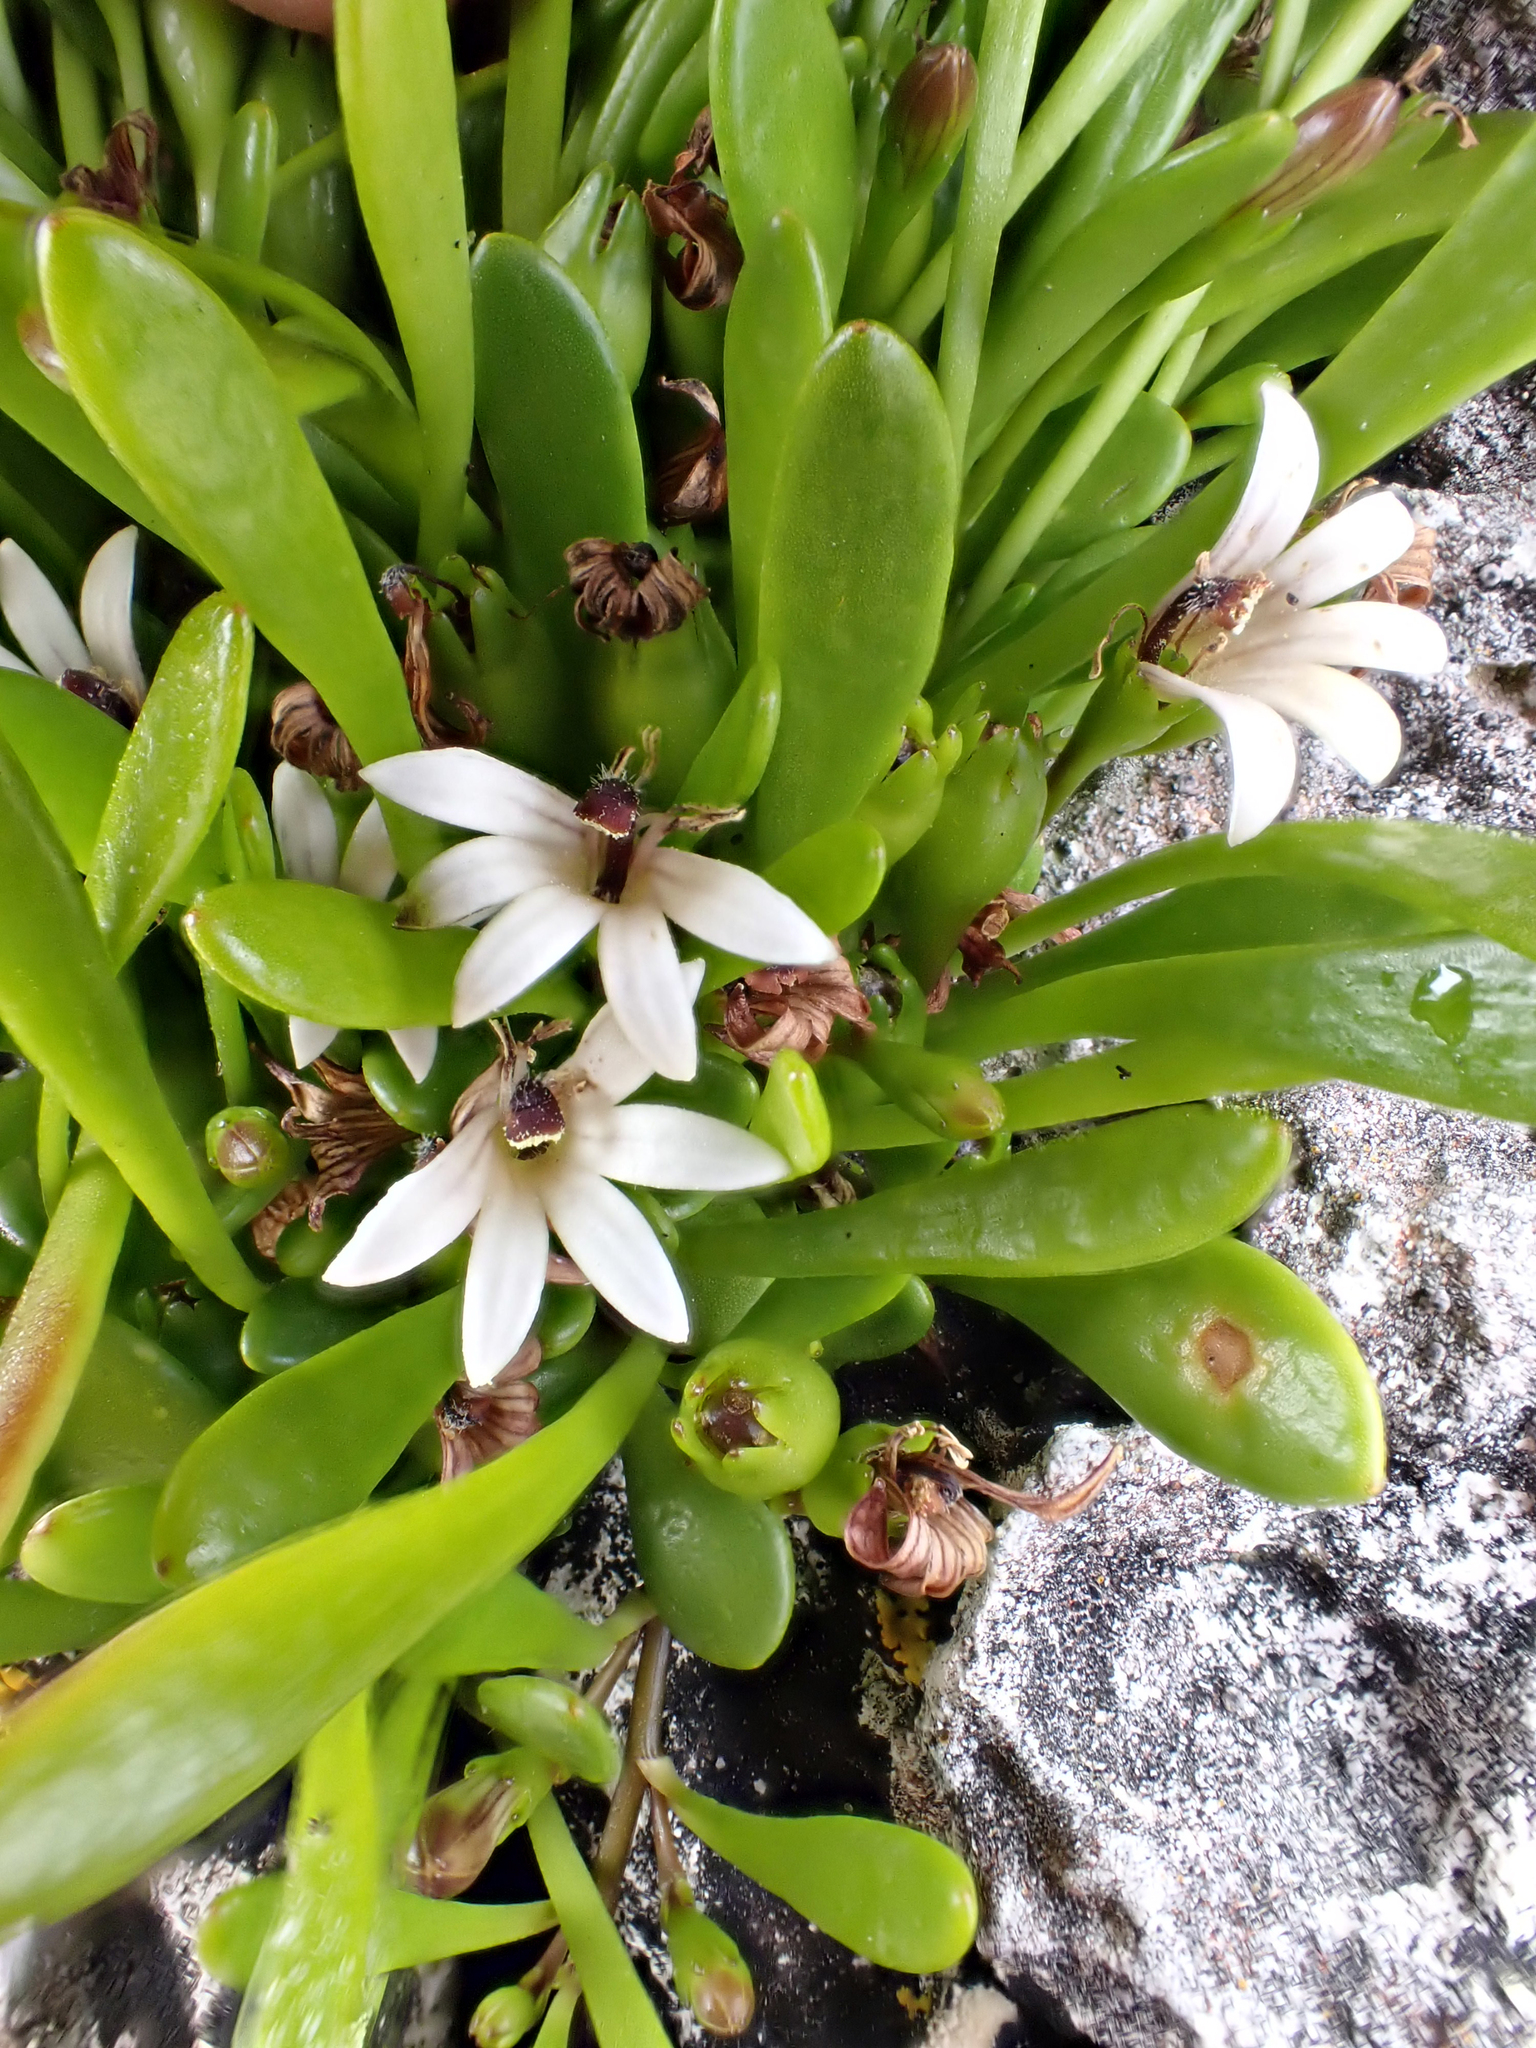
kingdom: Plantae
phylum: Tracheophyta
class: Magnoliopsida
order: Asterales
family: Goodeniaceae
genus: Goodenia
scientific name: Goodenia radicans
